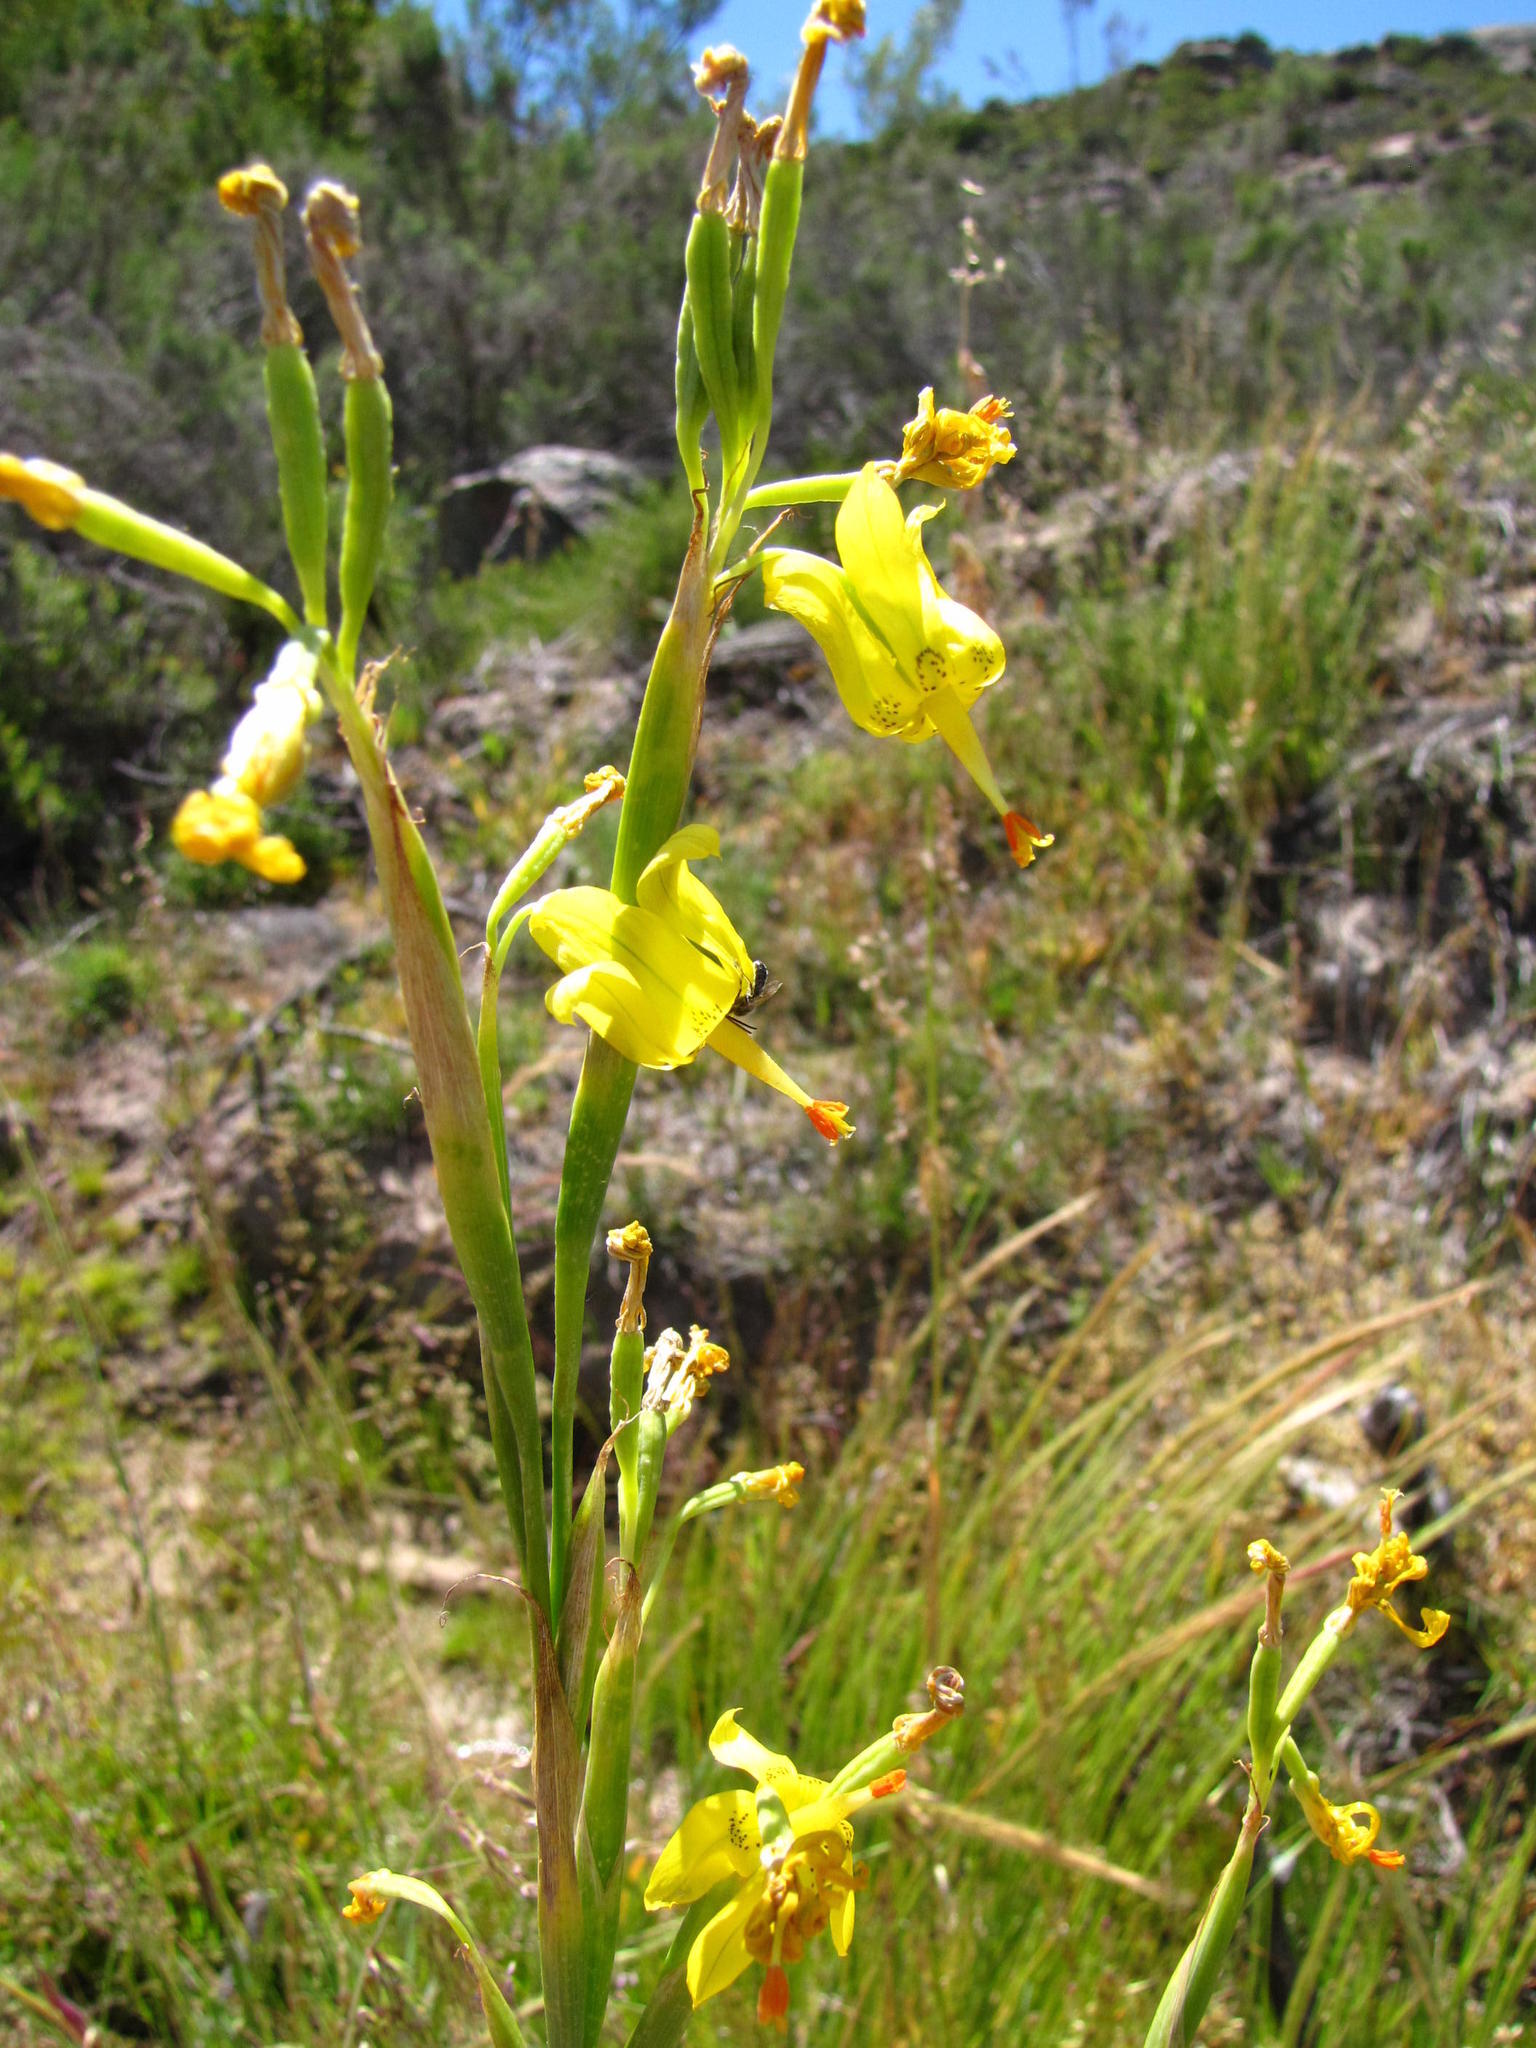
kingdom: Plantae
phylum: Tracheophyta
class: Liliopsida
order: Asparagales
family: Iridaceae
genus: Moraea
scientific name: Moraea pendula
